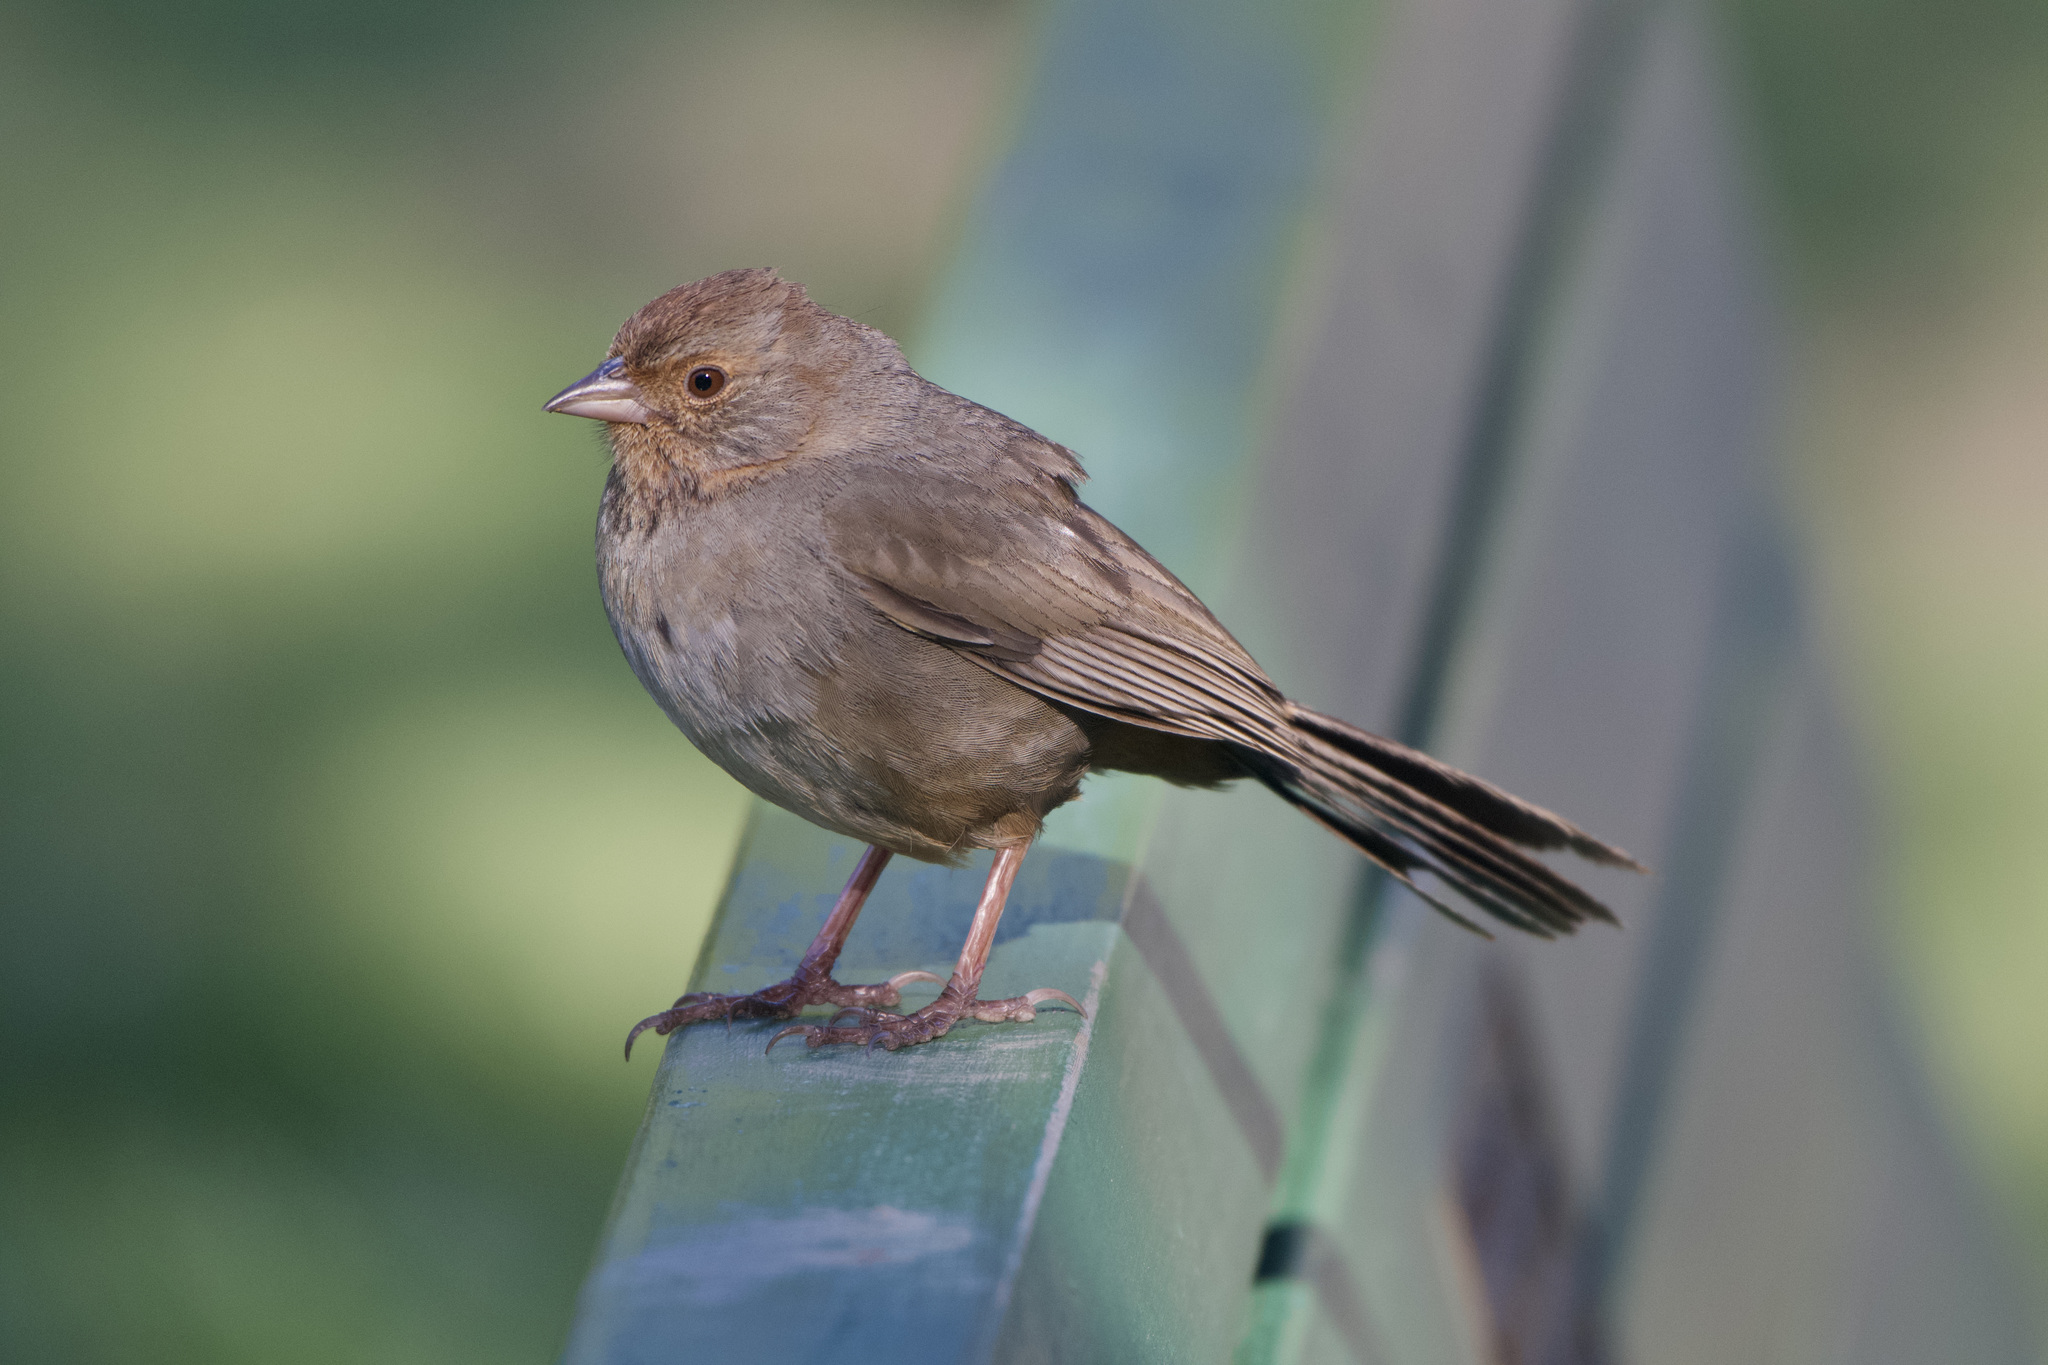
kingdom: Animalia
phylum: Chordata
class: Aves
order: Passeriformes
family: Passerellidae
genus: Melozone
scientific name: Melozone crissalis
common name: California towhee
